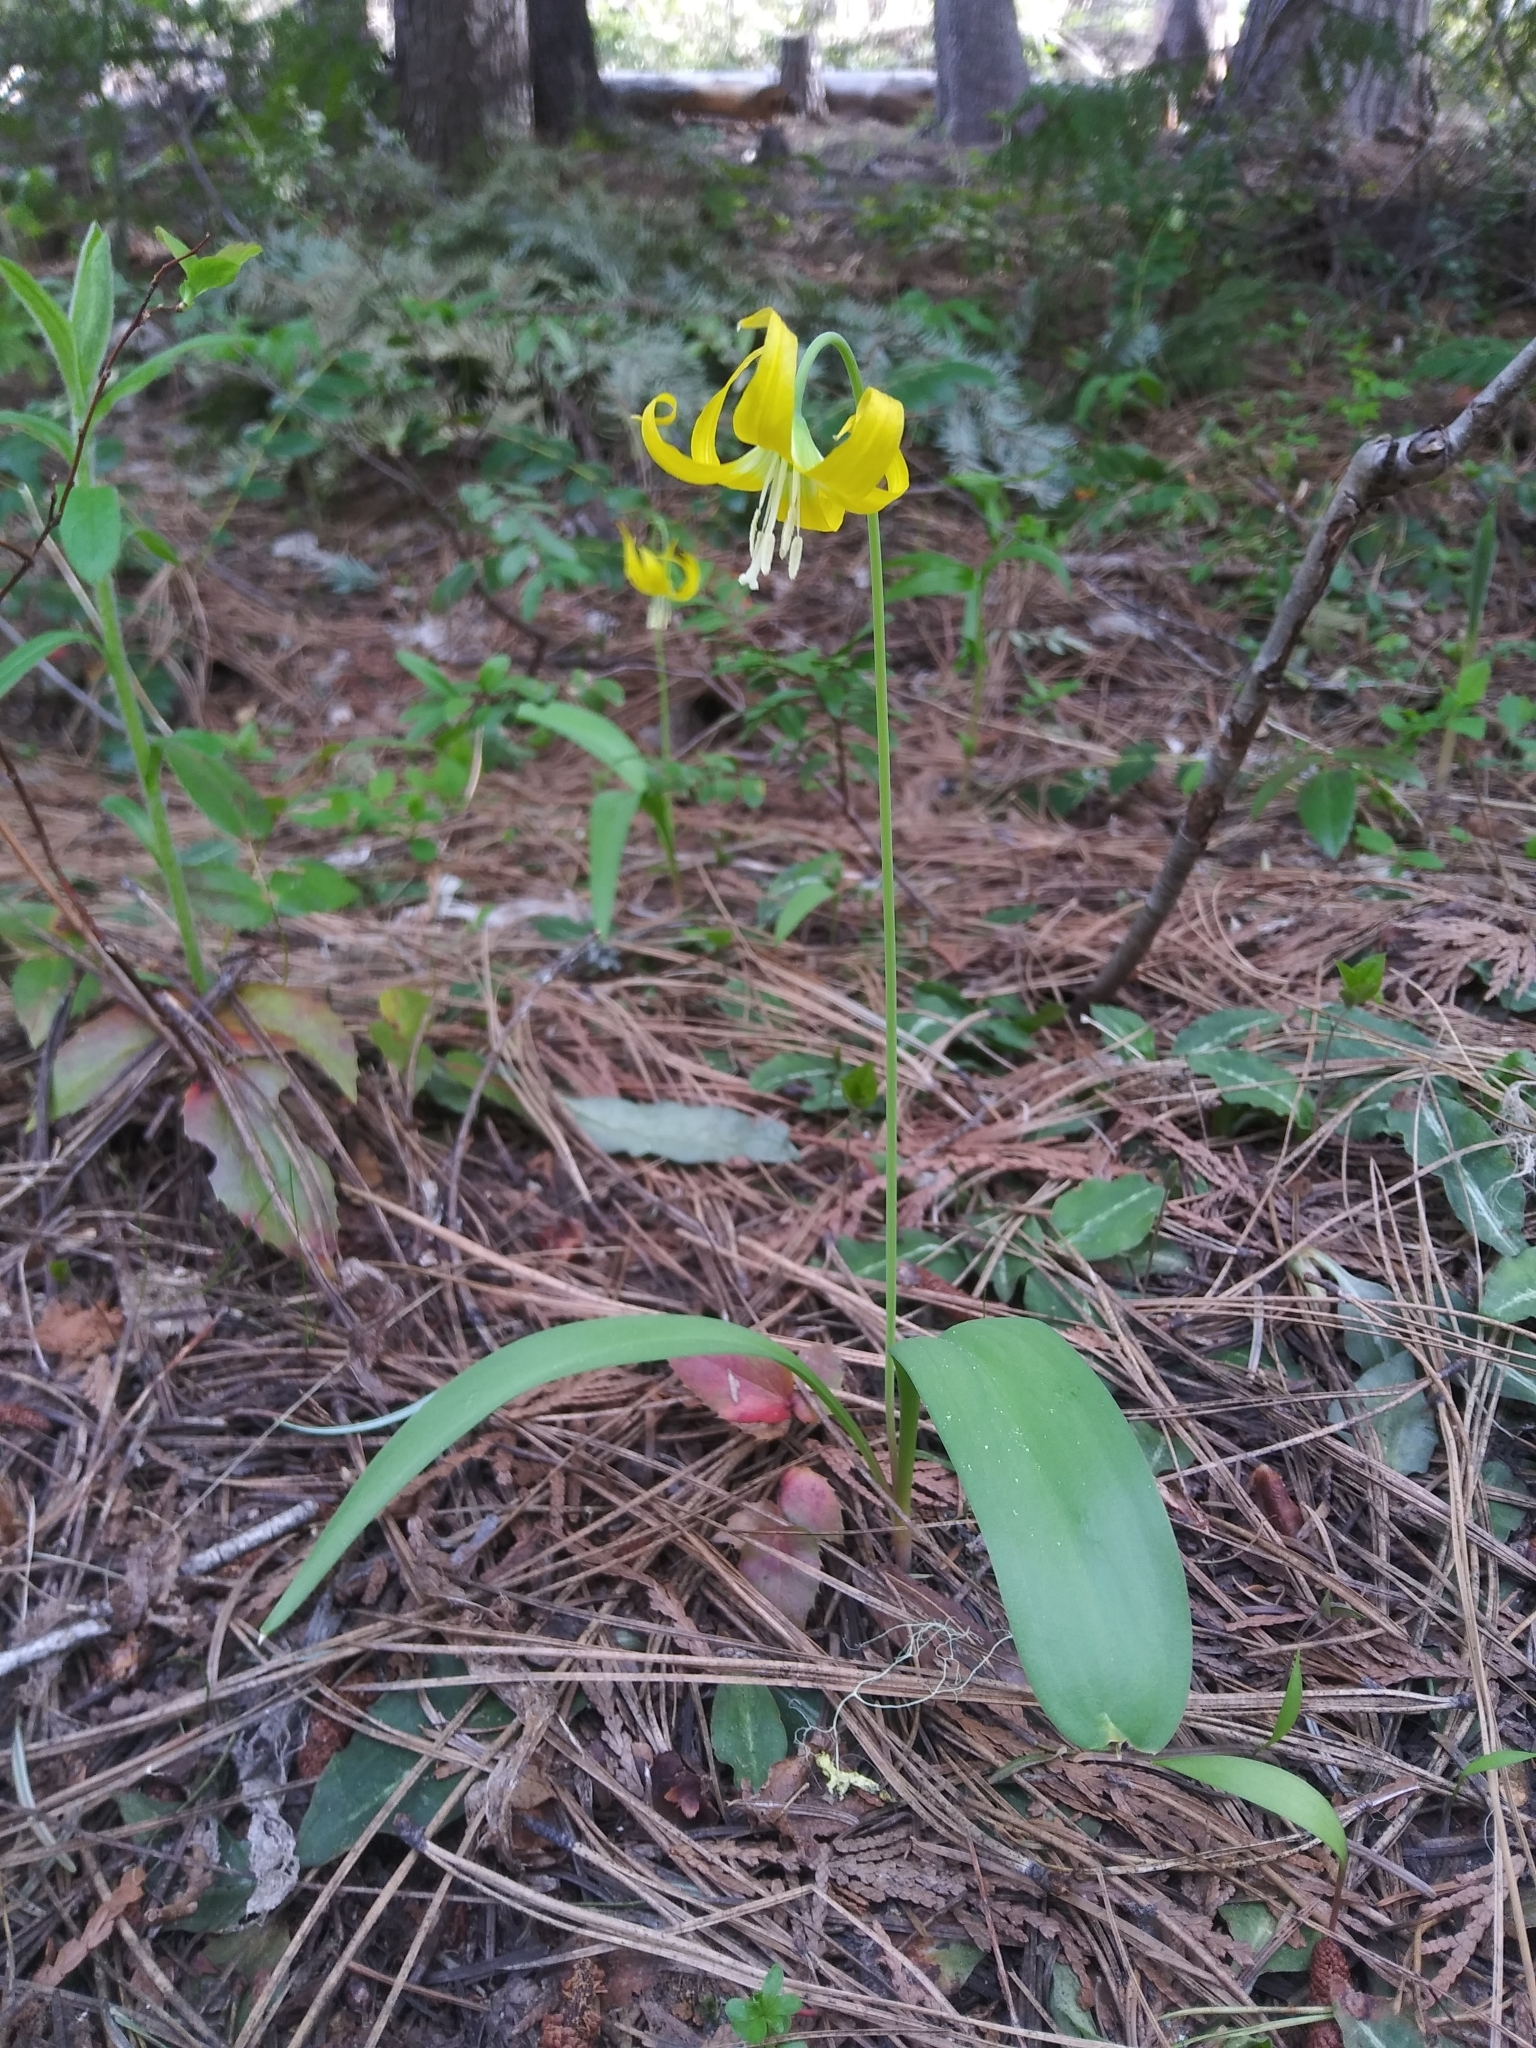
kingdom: Plantae
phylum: Tracheophyta
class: Liliopsida
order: Liliales
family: Liliaceae
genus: Erythronium
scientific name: Erythronium grandiflorum
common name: Avalanche-lily
